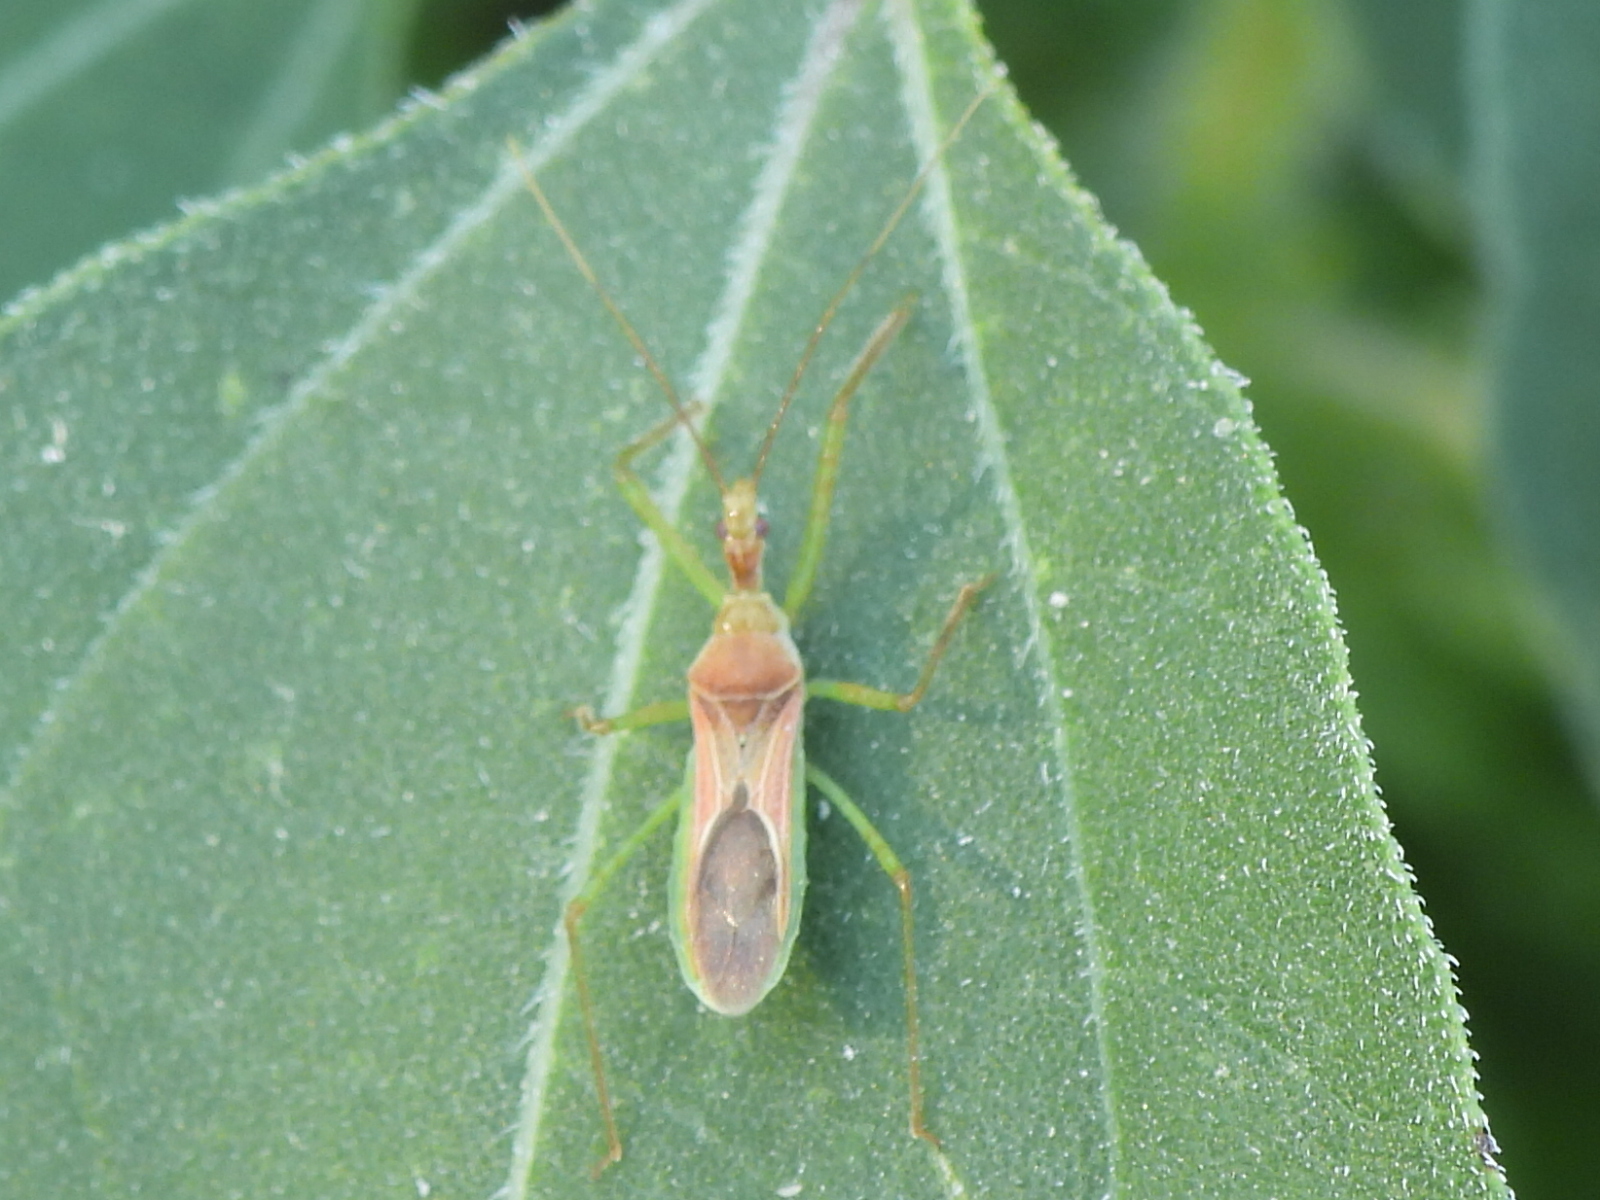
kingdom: Animalia
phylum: Arthropoda
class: Insecta
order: Hemiptera
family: Reduviidae
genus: Zelus
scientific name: Zelus renardii
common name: Assassin bug
